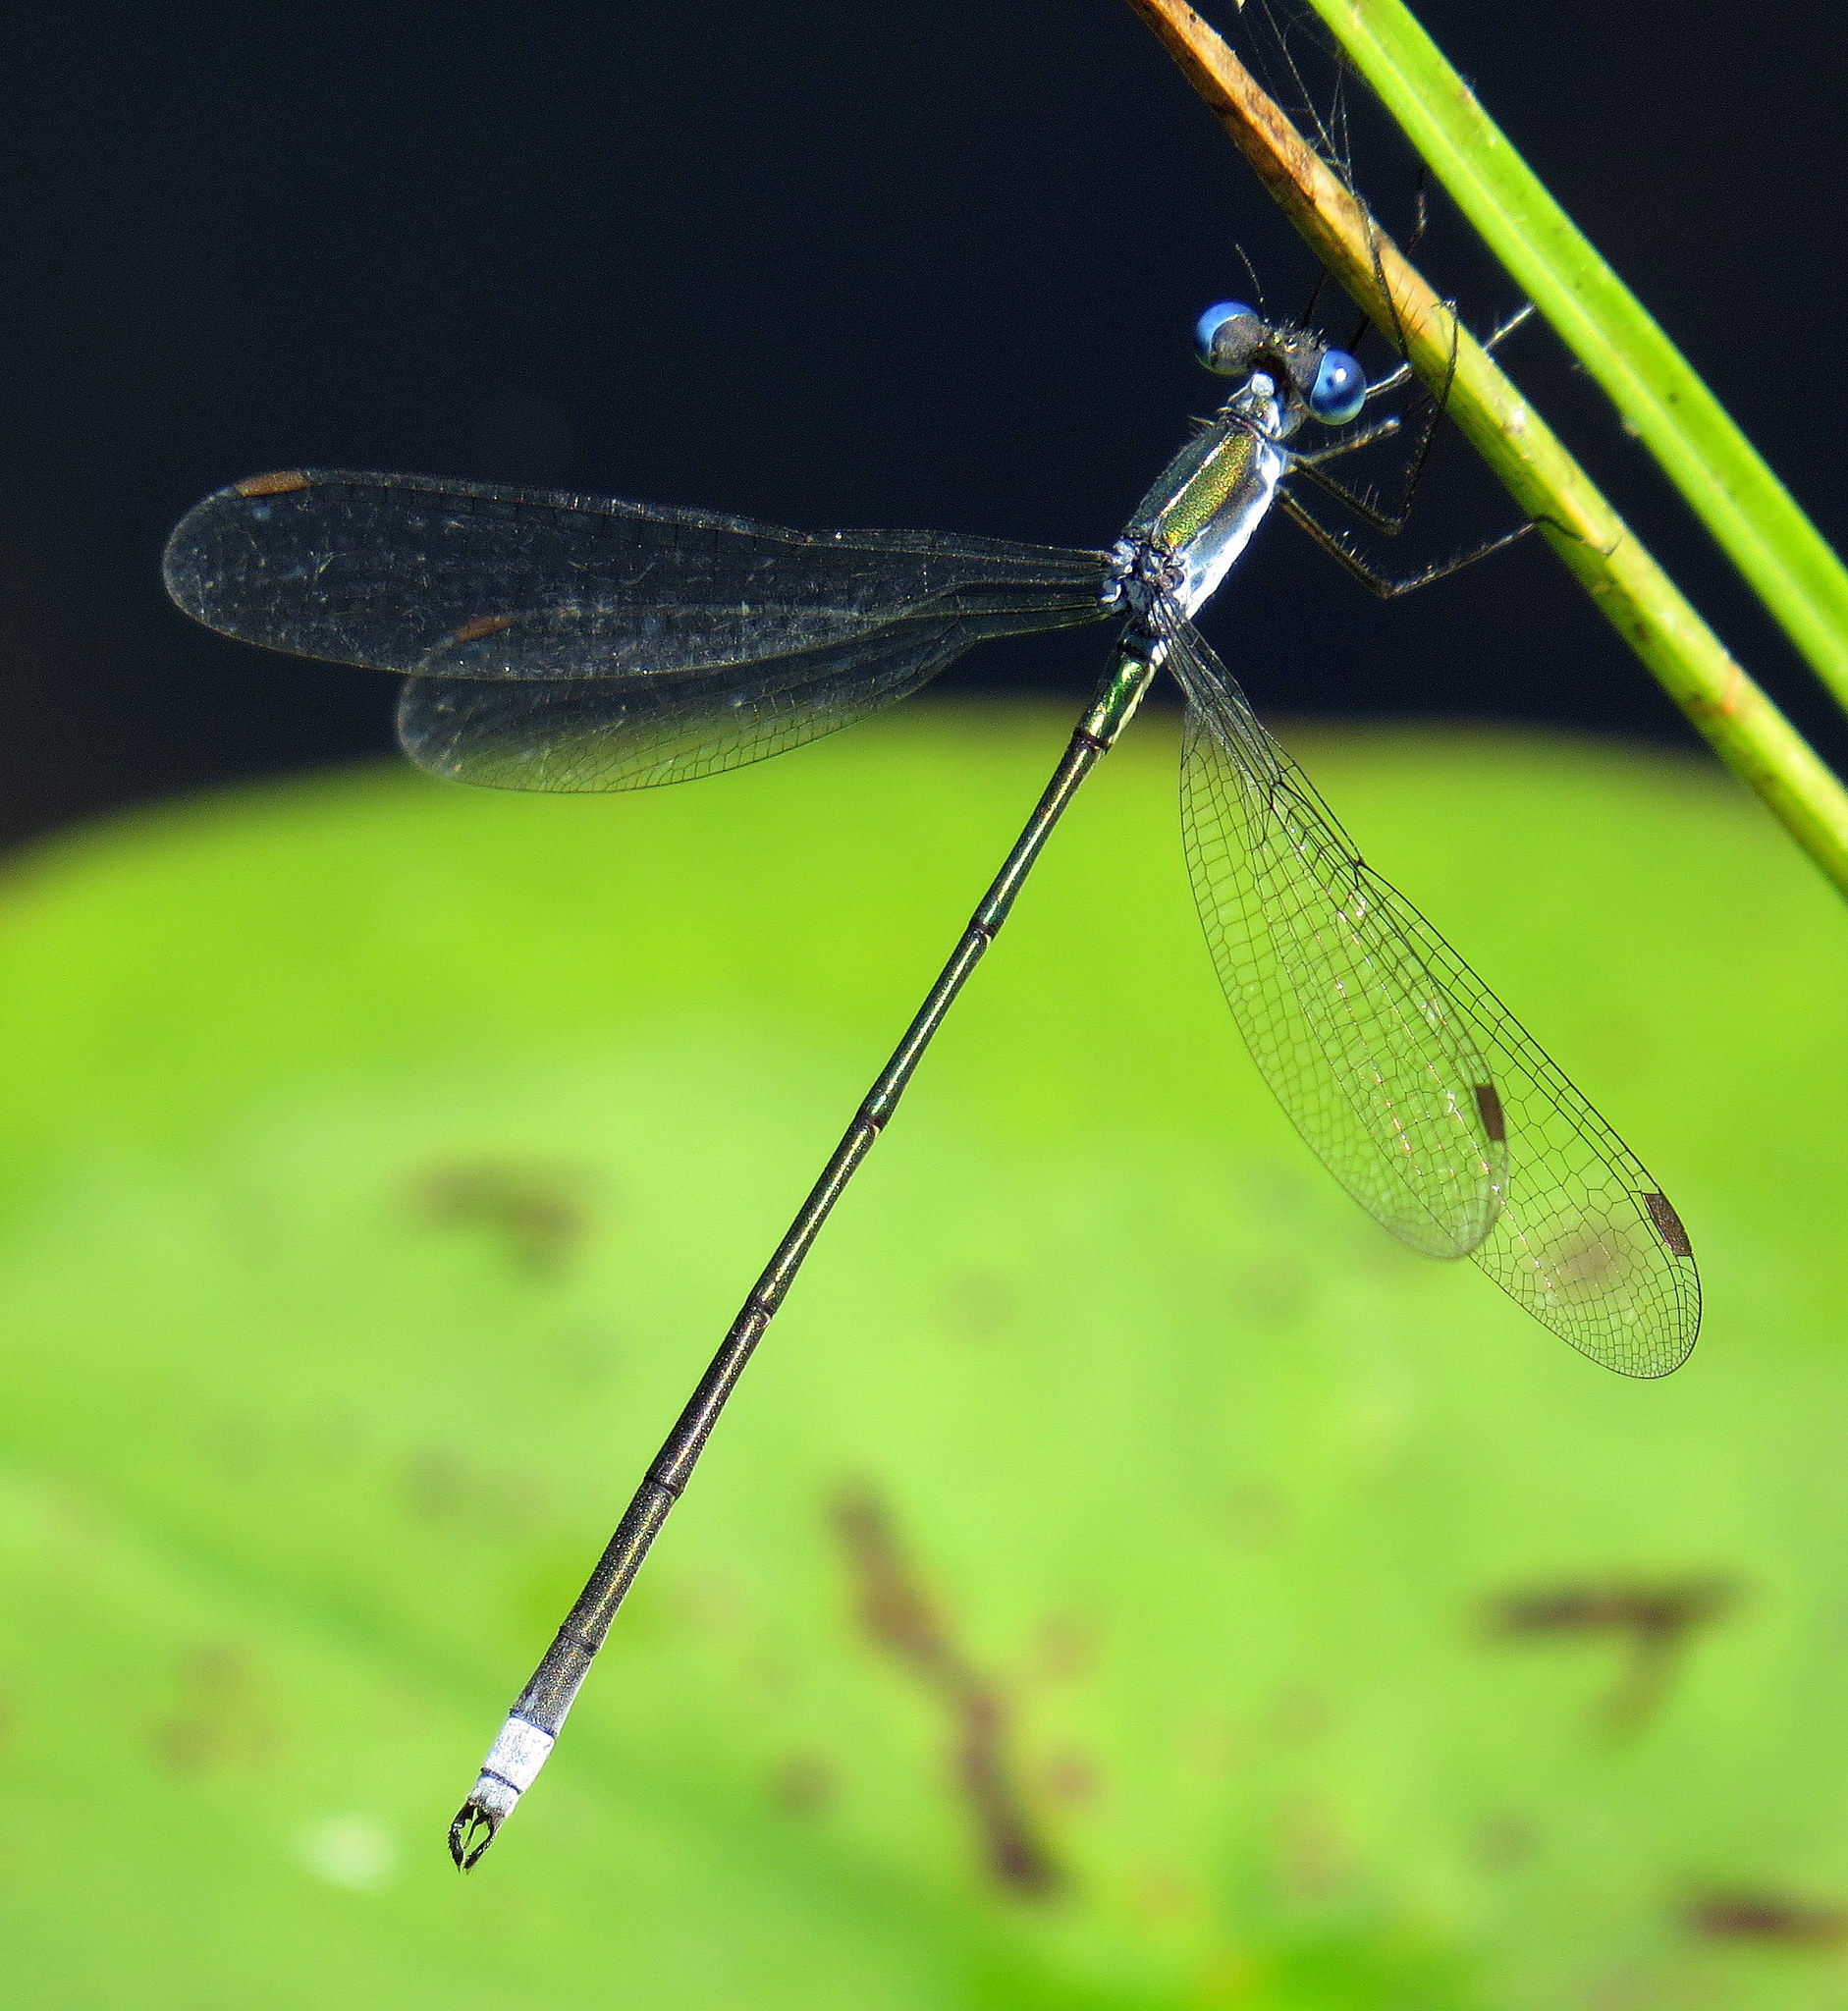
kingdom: Animalia
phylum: Arthropoda
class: Insecta
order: Odonata
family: Lestidae
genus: Lestes
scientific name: Lestes vigilax
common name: Swamp spreadwing
